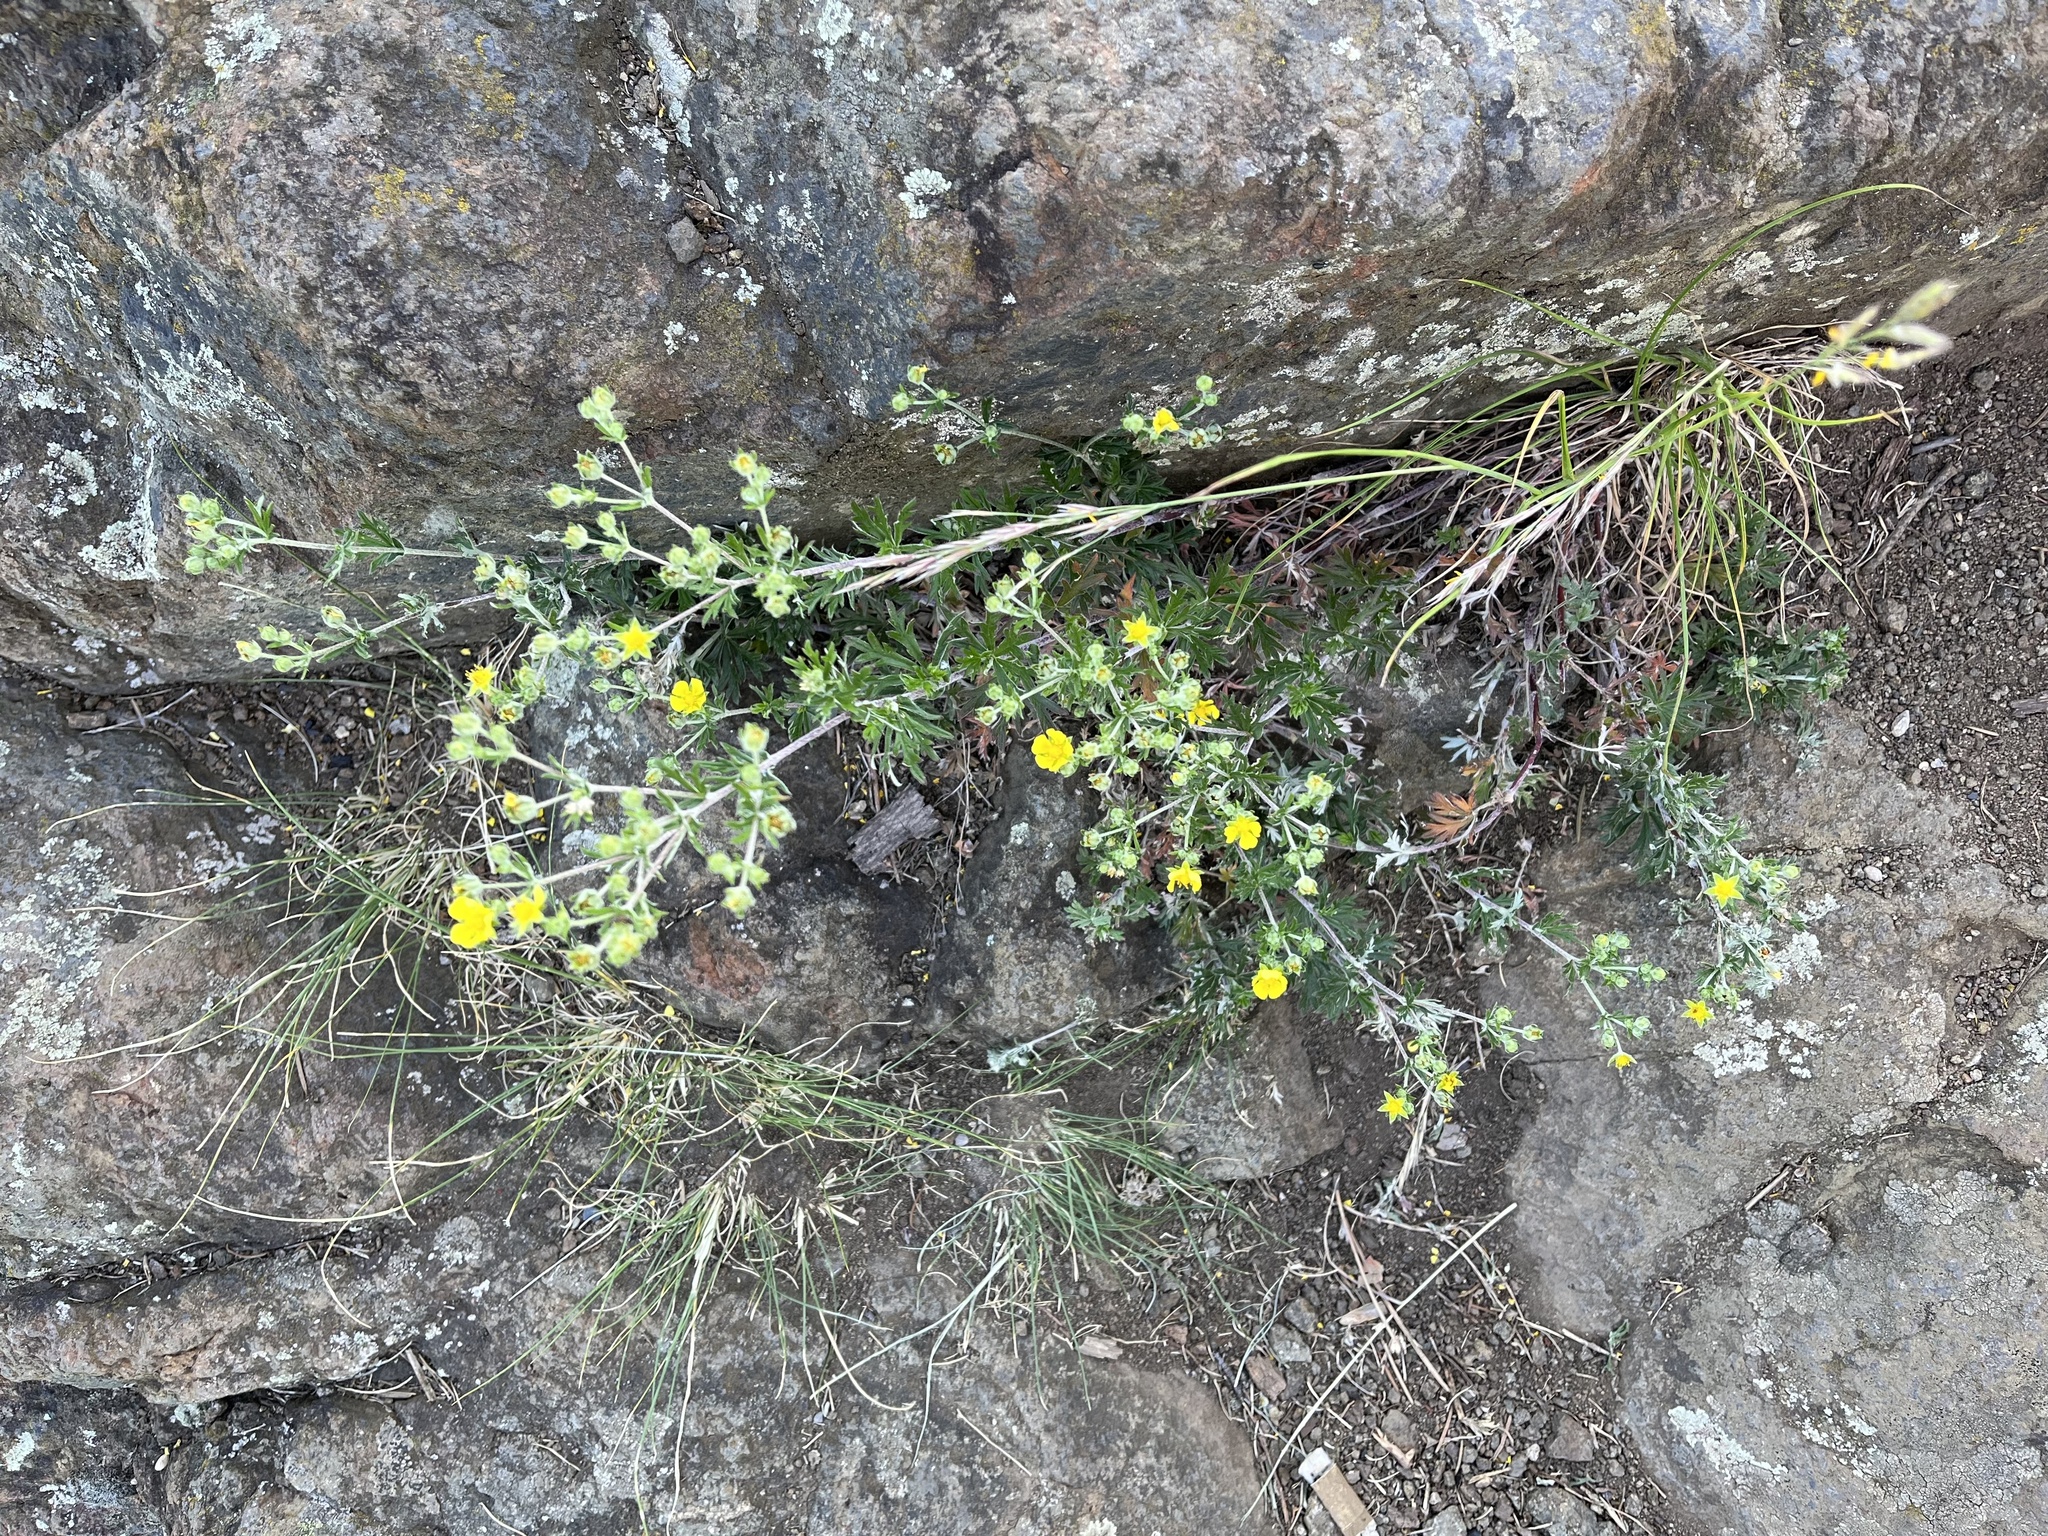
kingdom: Plantae
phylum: Tracheophyta
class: Magnoliopsida
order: Rosales
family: Rosaceae
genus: Potentilla
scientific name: Potentilla argentea
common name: Hoary cinquefoil
